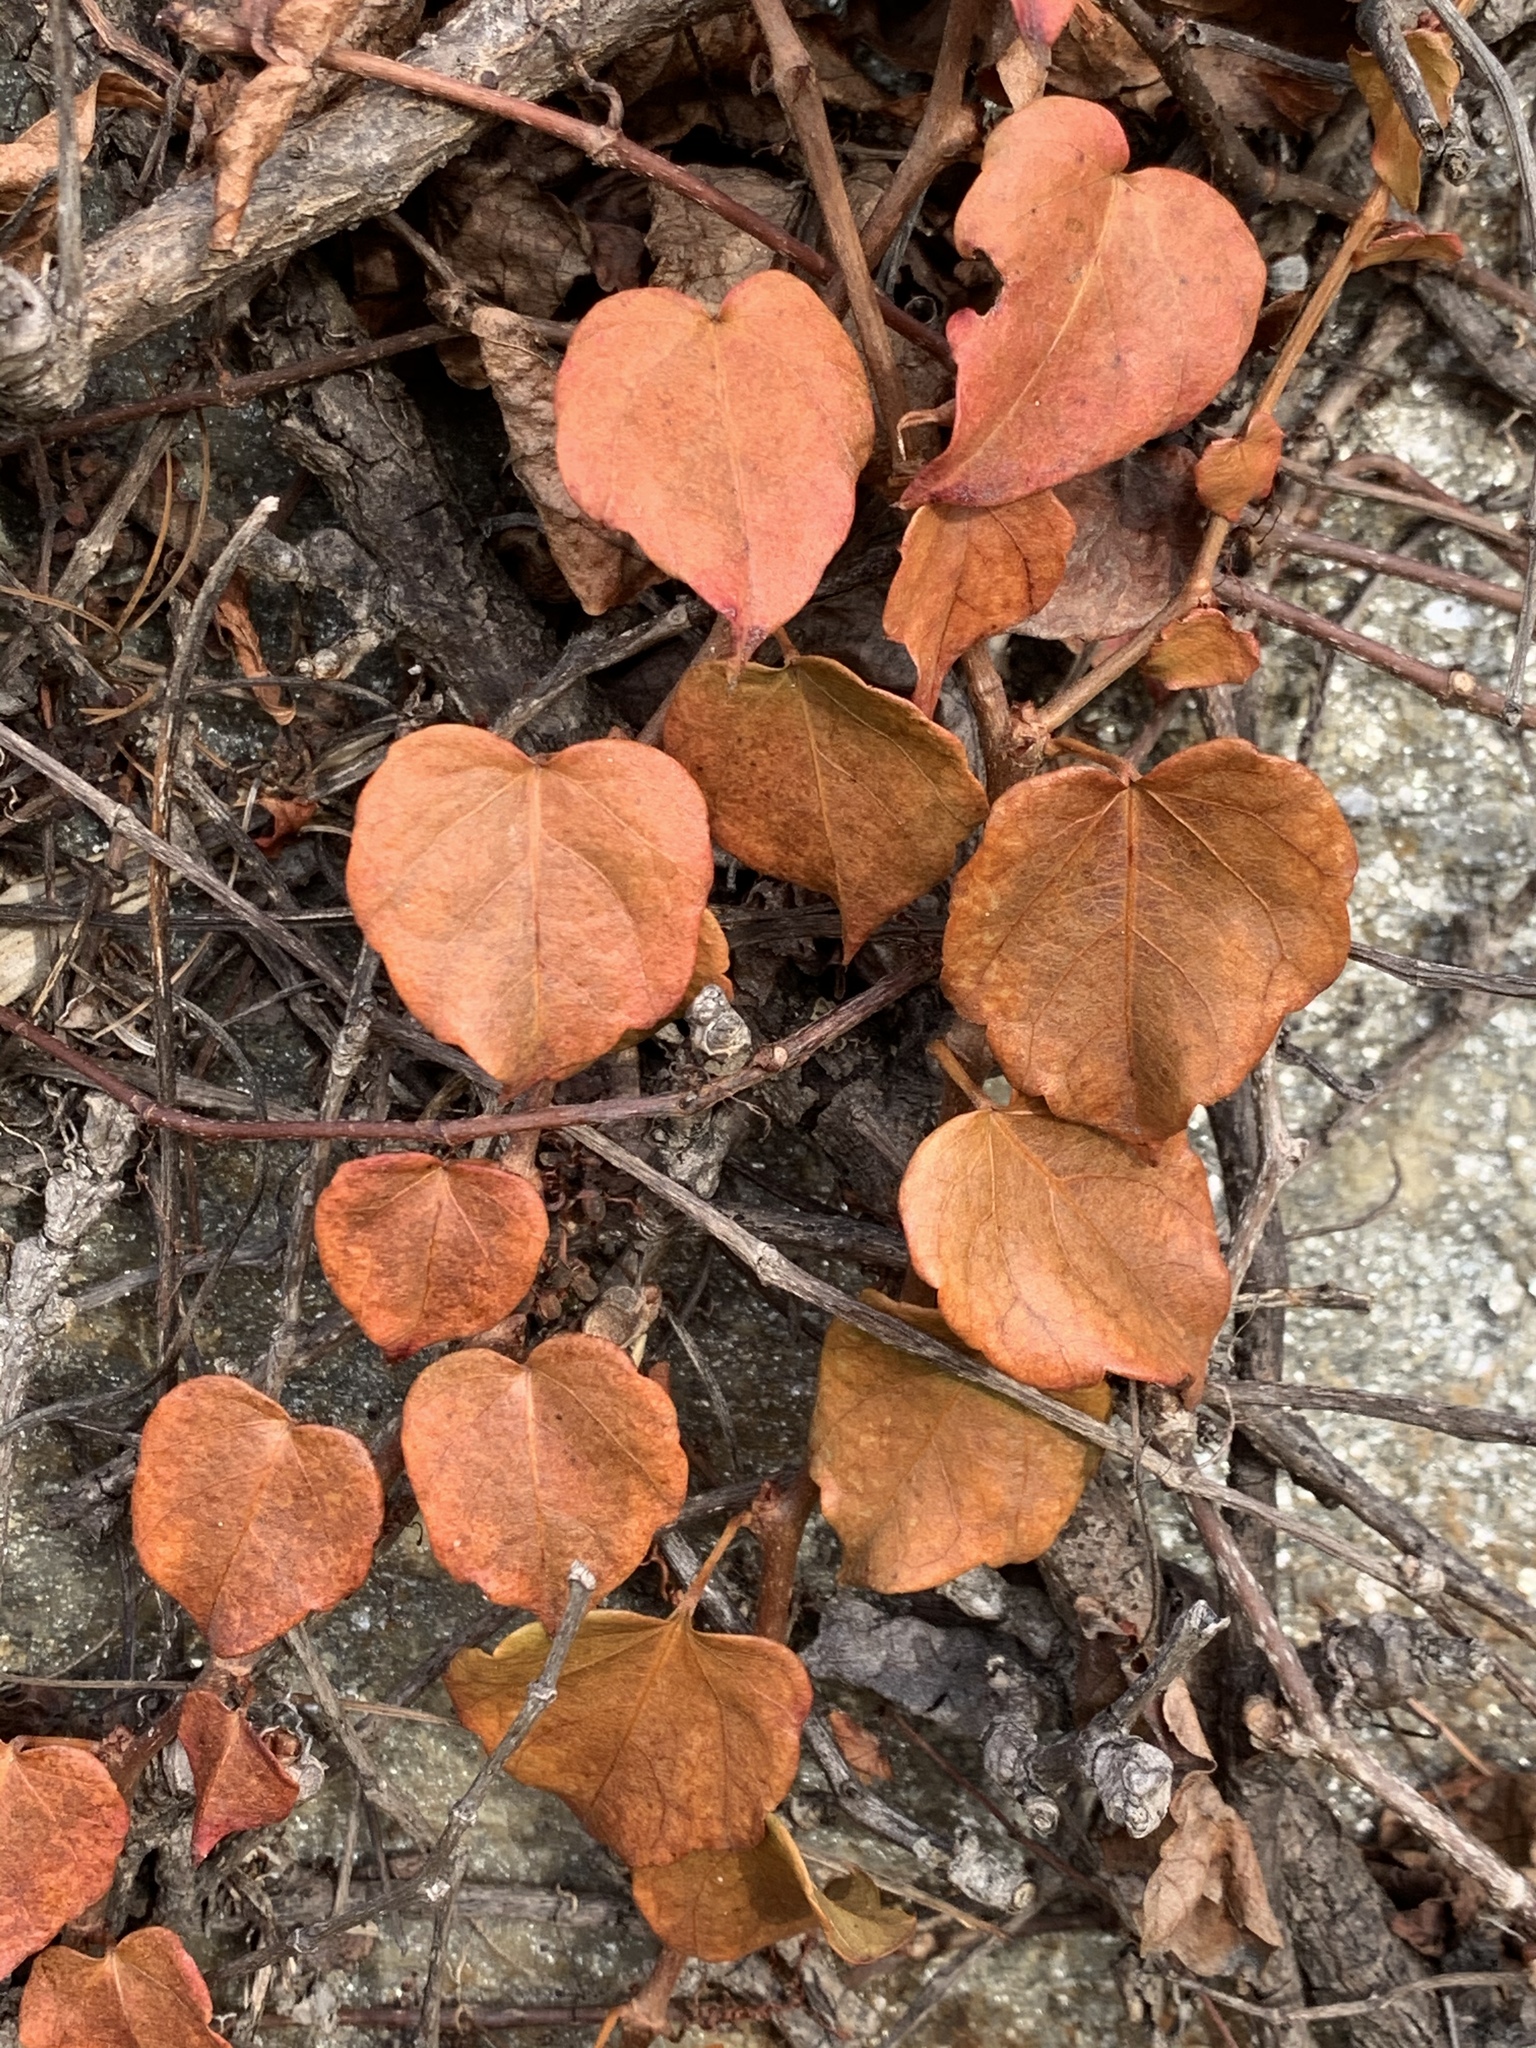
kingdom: Plantae
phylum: Tracheophyta
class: Magnoliopsida
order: Vitales
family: Vitaceae
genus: Parthenocissus
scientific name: Parthenocissus tricuspidata
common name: Boston ivy
